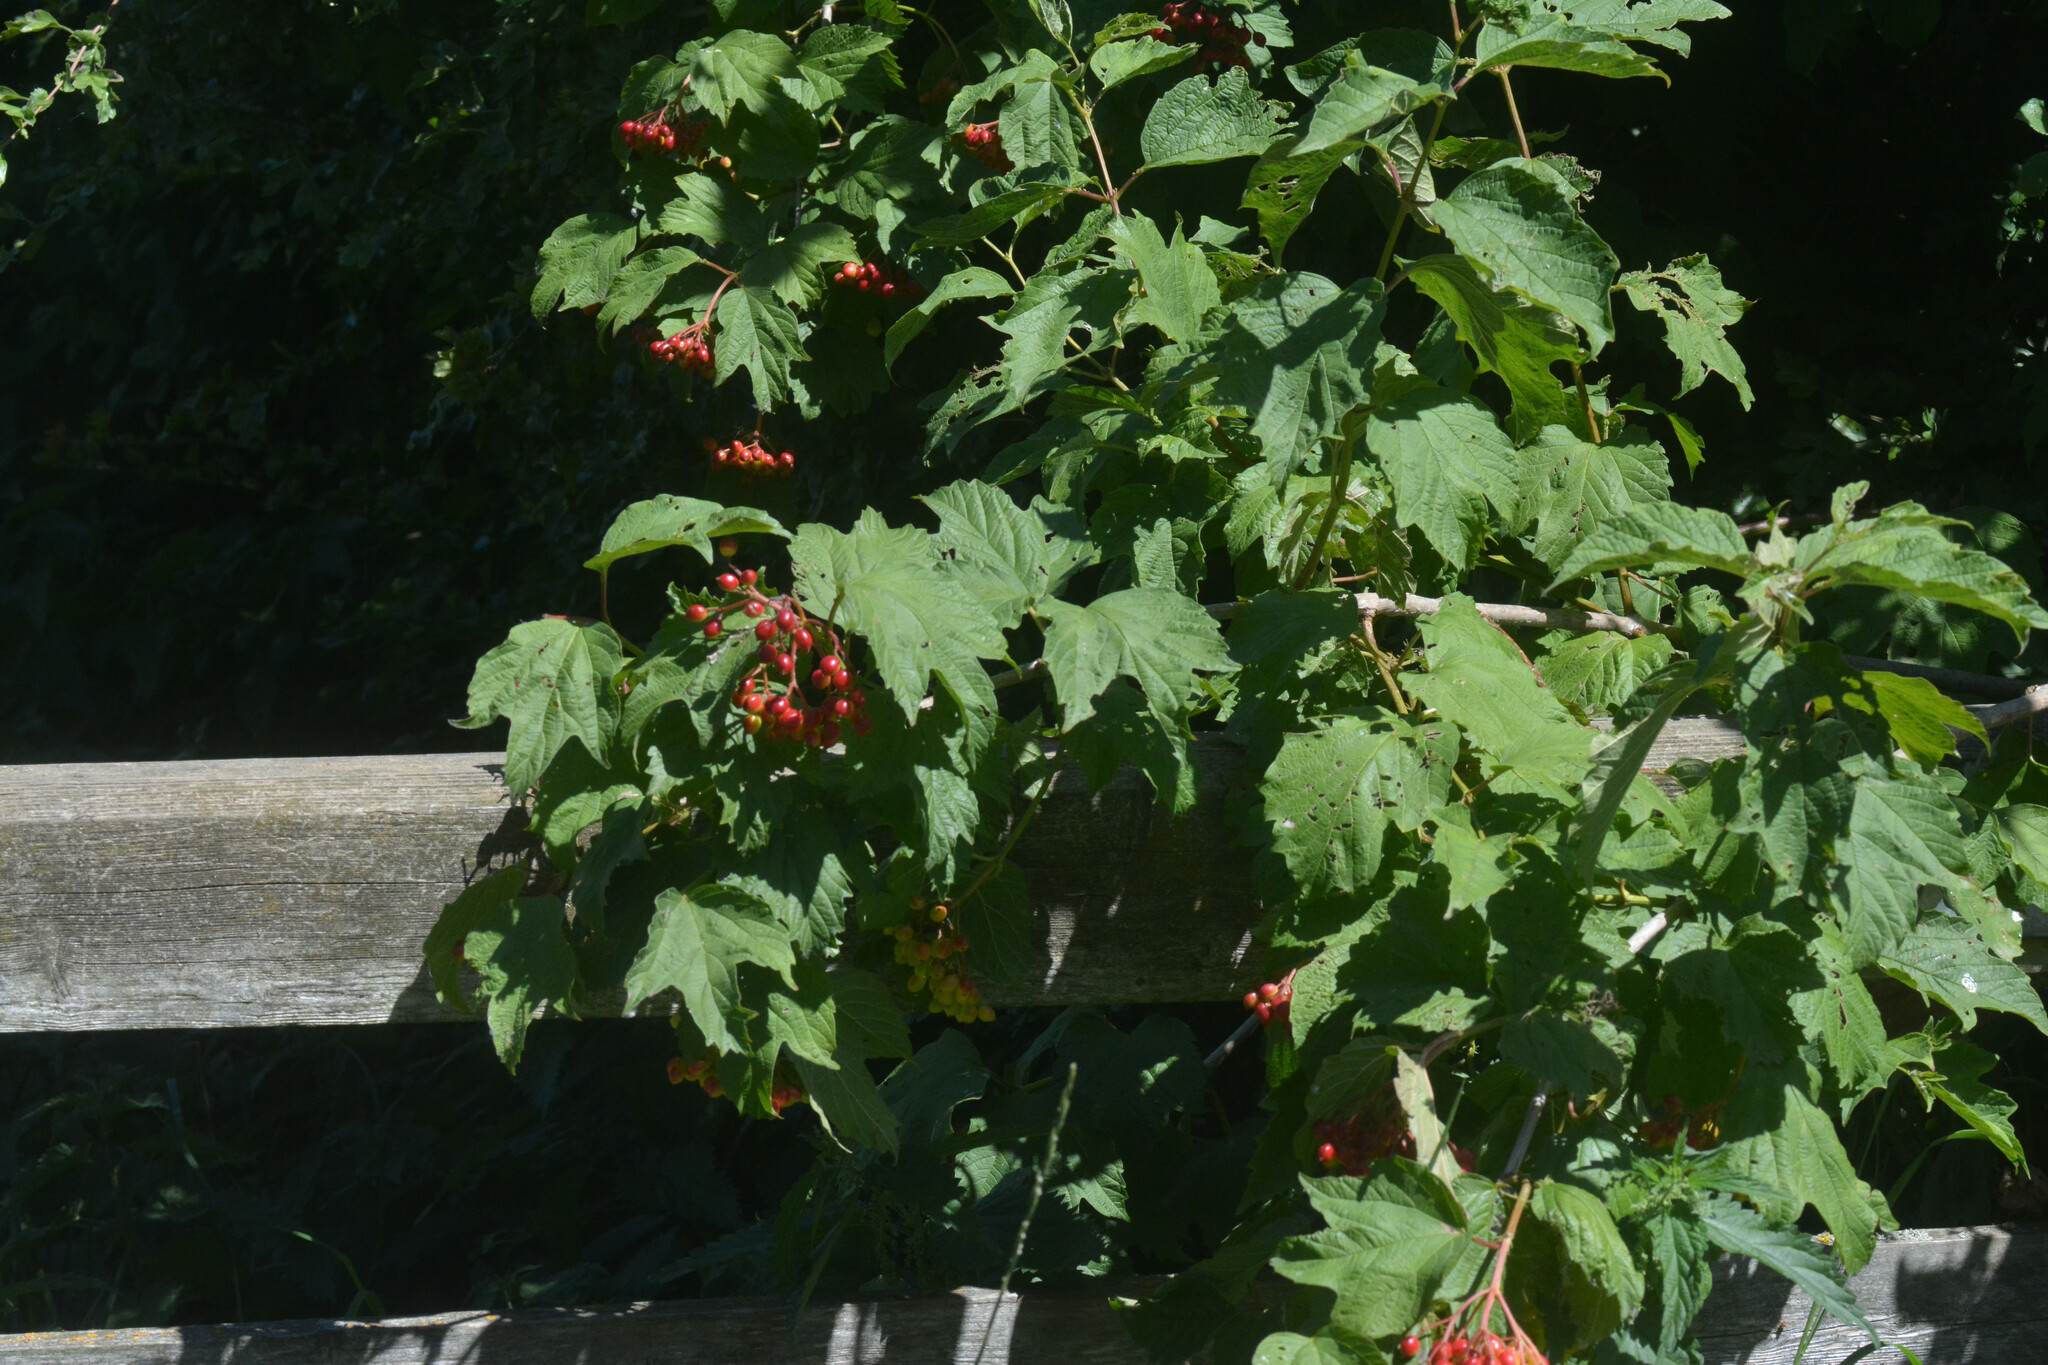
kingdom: Plantae
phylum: Tracheophyta
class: Magnoliopsida
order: Dipsacales
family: Viburnaceae
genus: Viburnum
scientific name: Viburnum opulus
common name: Guelder-rose
